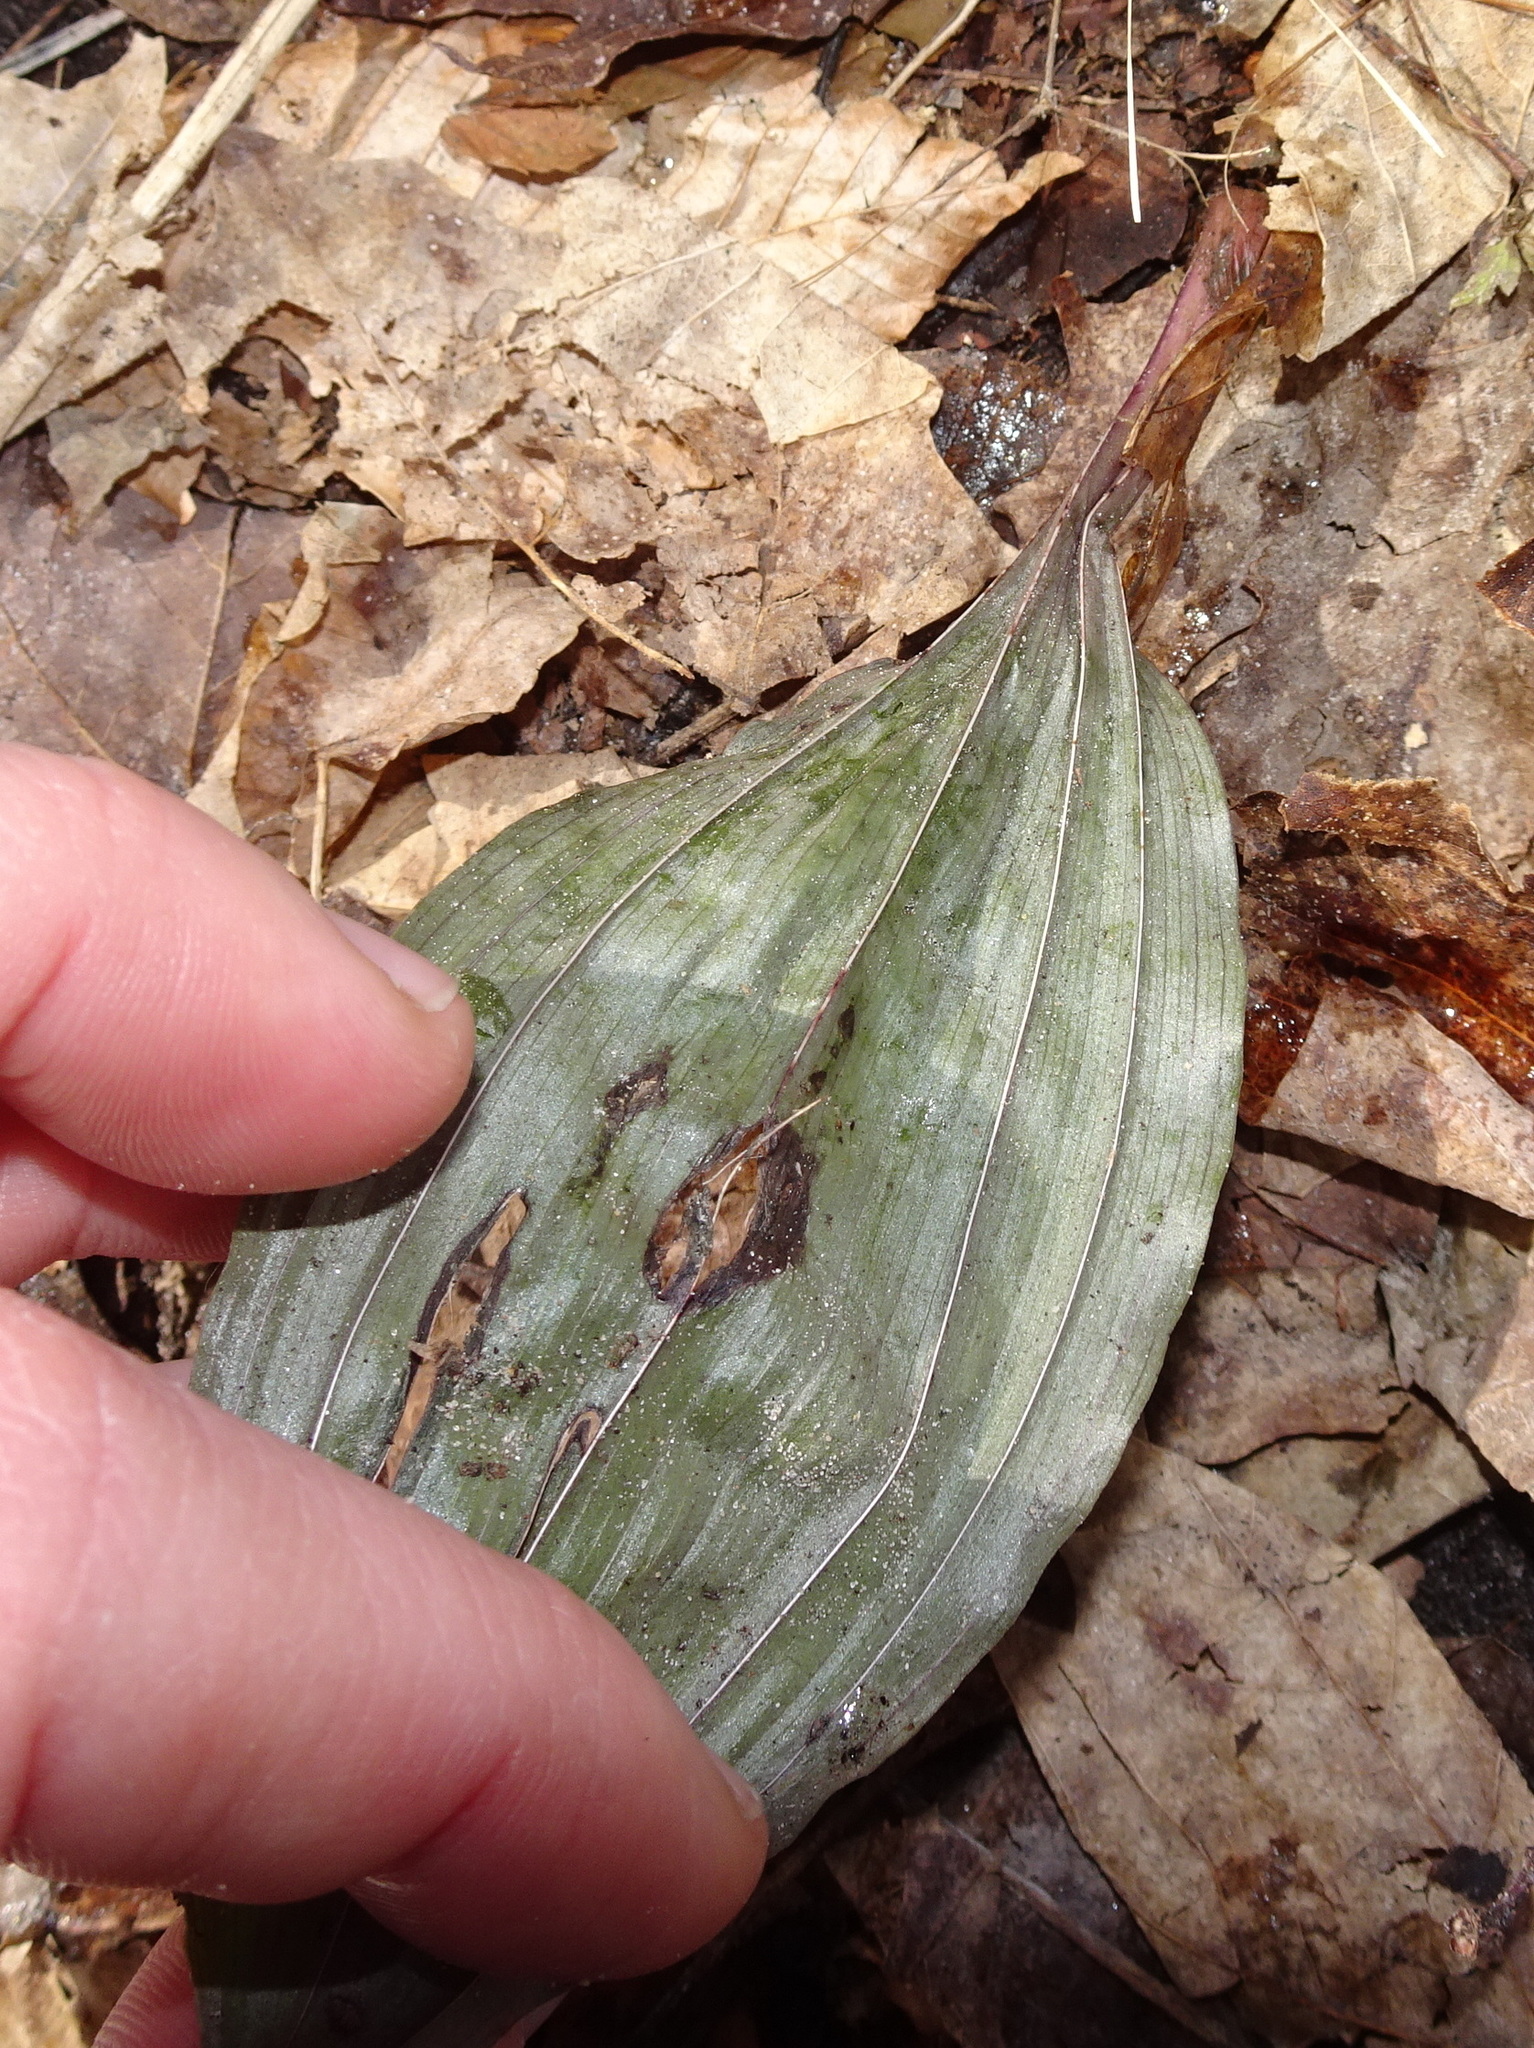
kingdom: Plantae
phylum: Tracheophyta
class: Liliopsida
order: Asparagales
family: Orchidaceae
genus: Aplectrum
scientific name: Aplectrum hyemale
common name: Adam-and-eve
